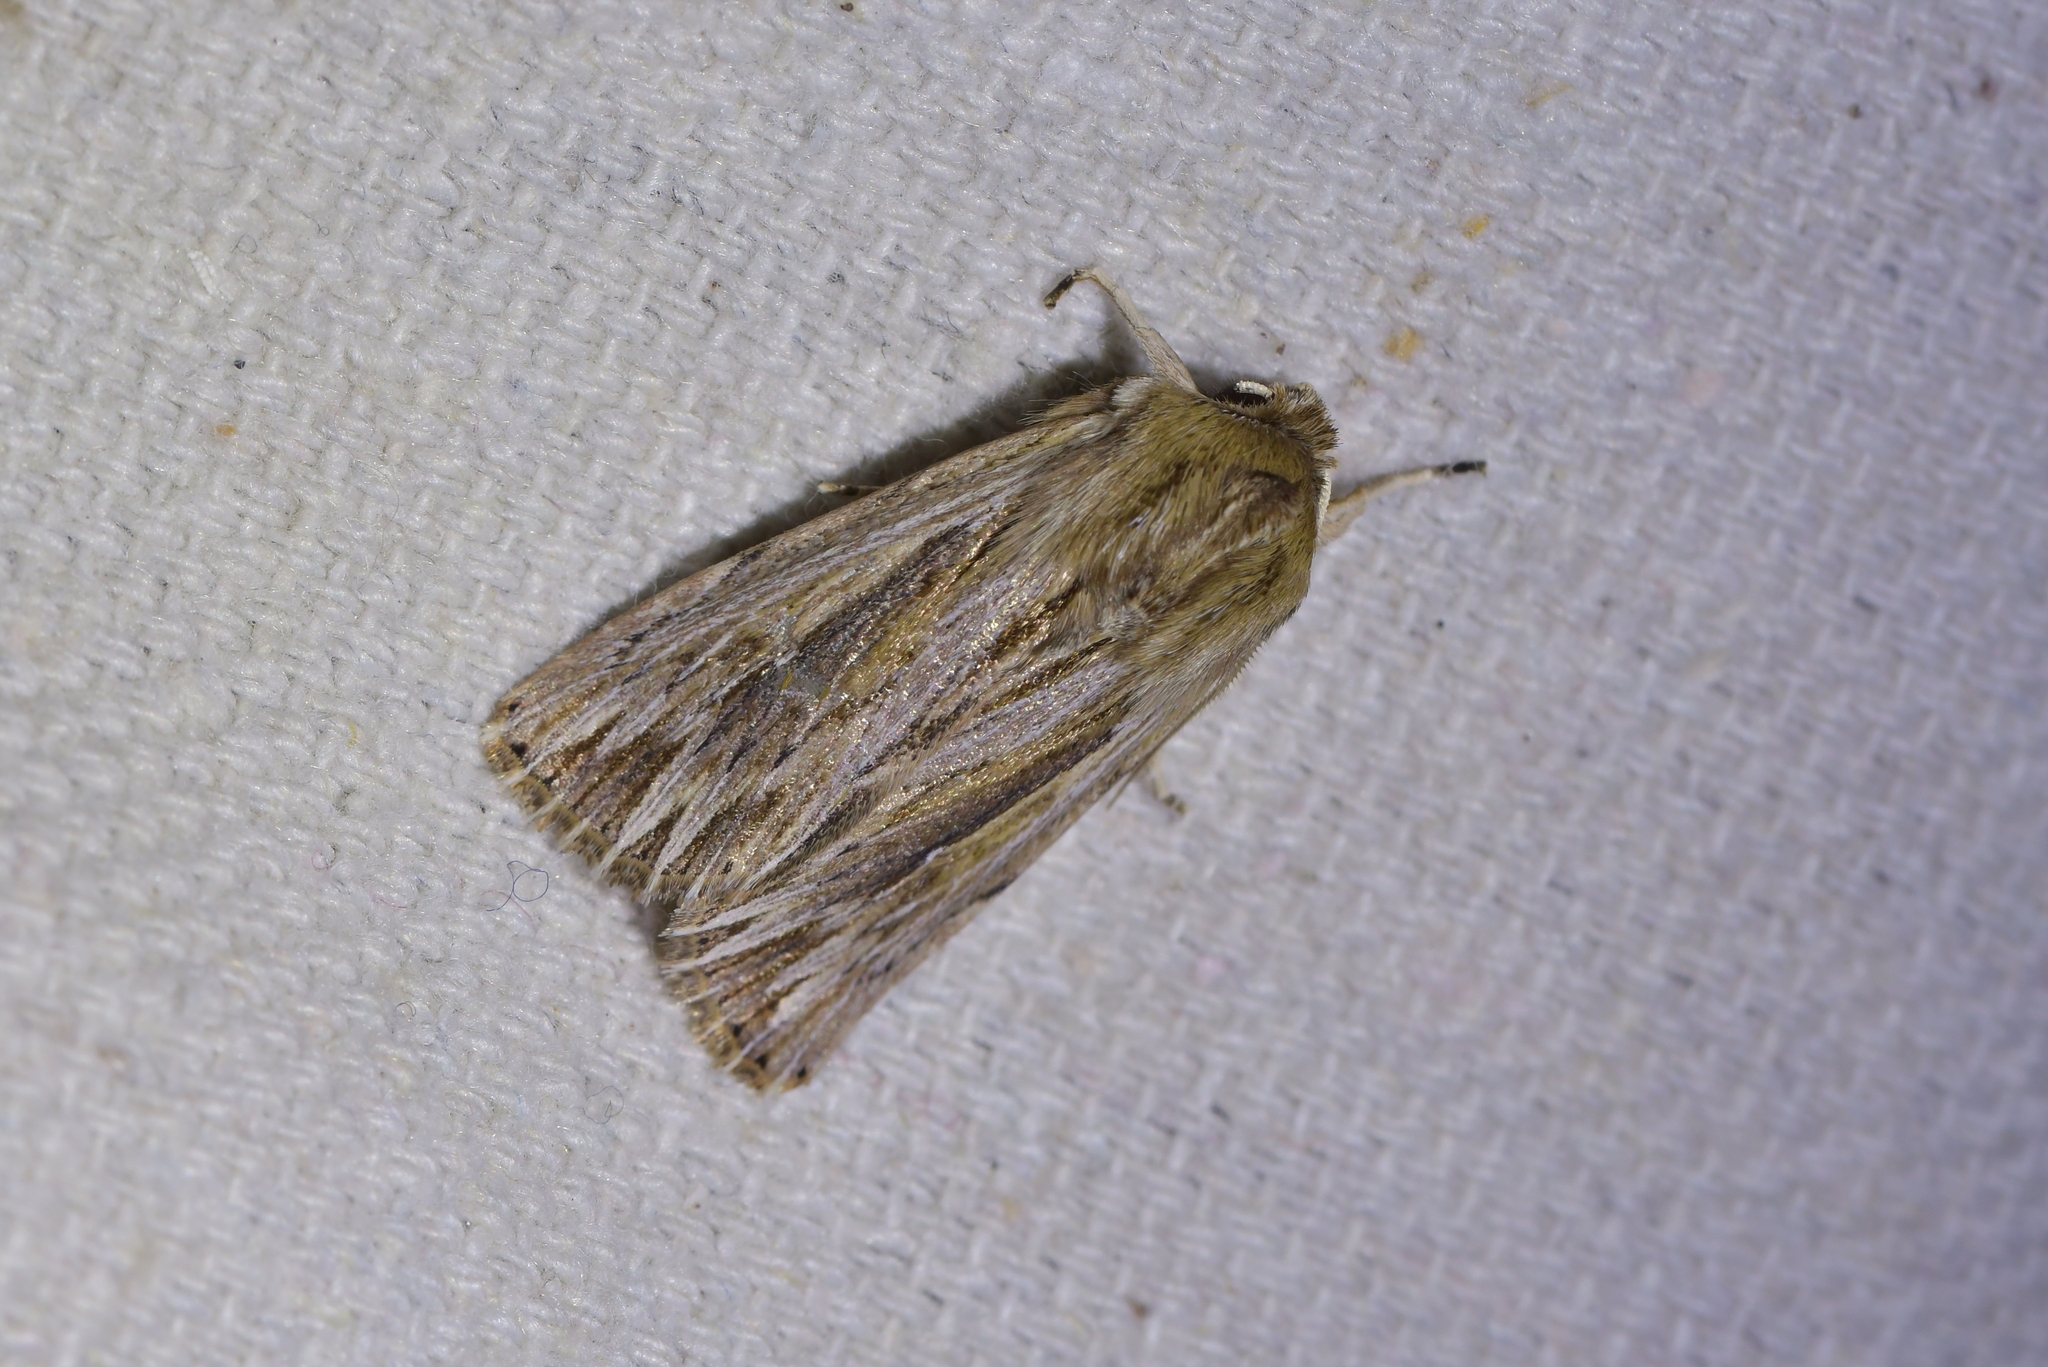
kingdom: Animalia
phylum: Arthropoda
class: Insecta
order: Lepidoptera
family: Noctuidae
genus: Persectania
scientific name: Persectania aversa
